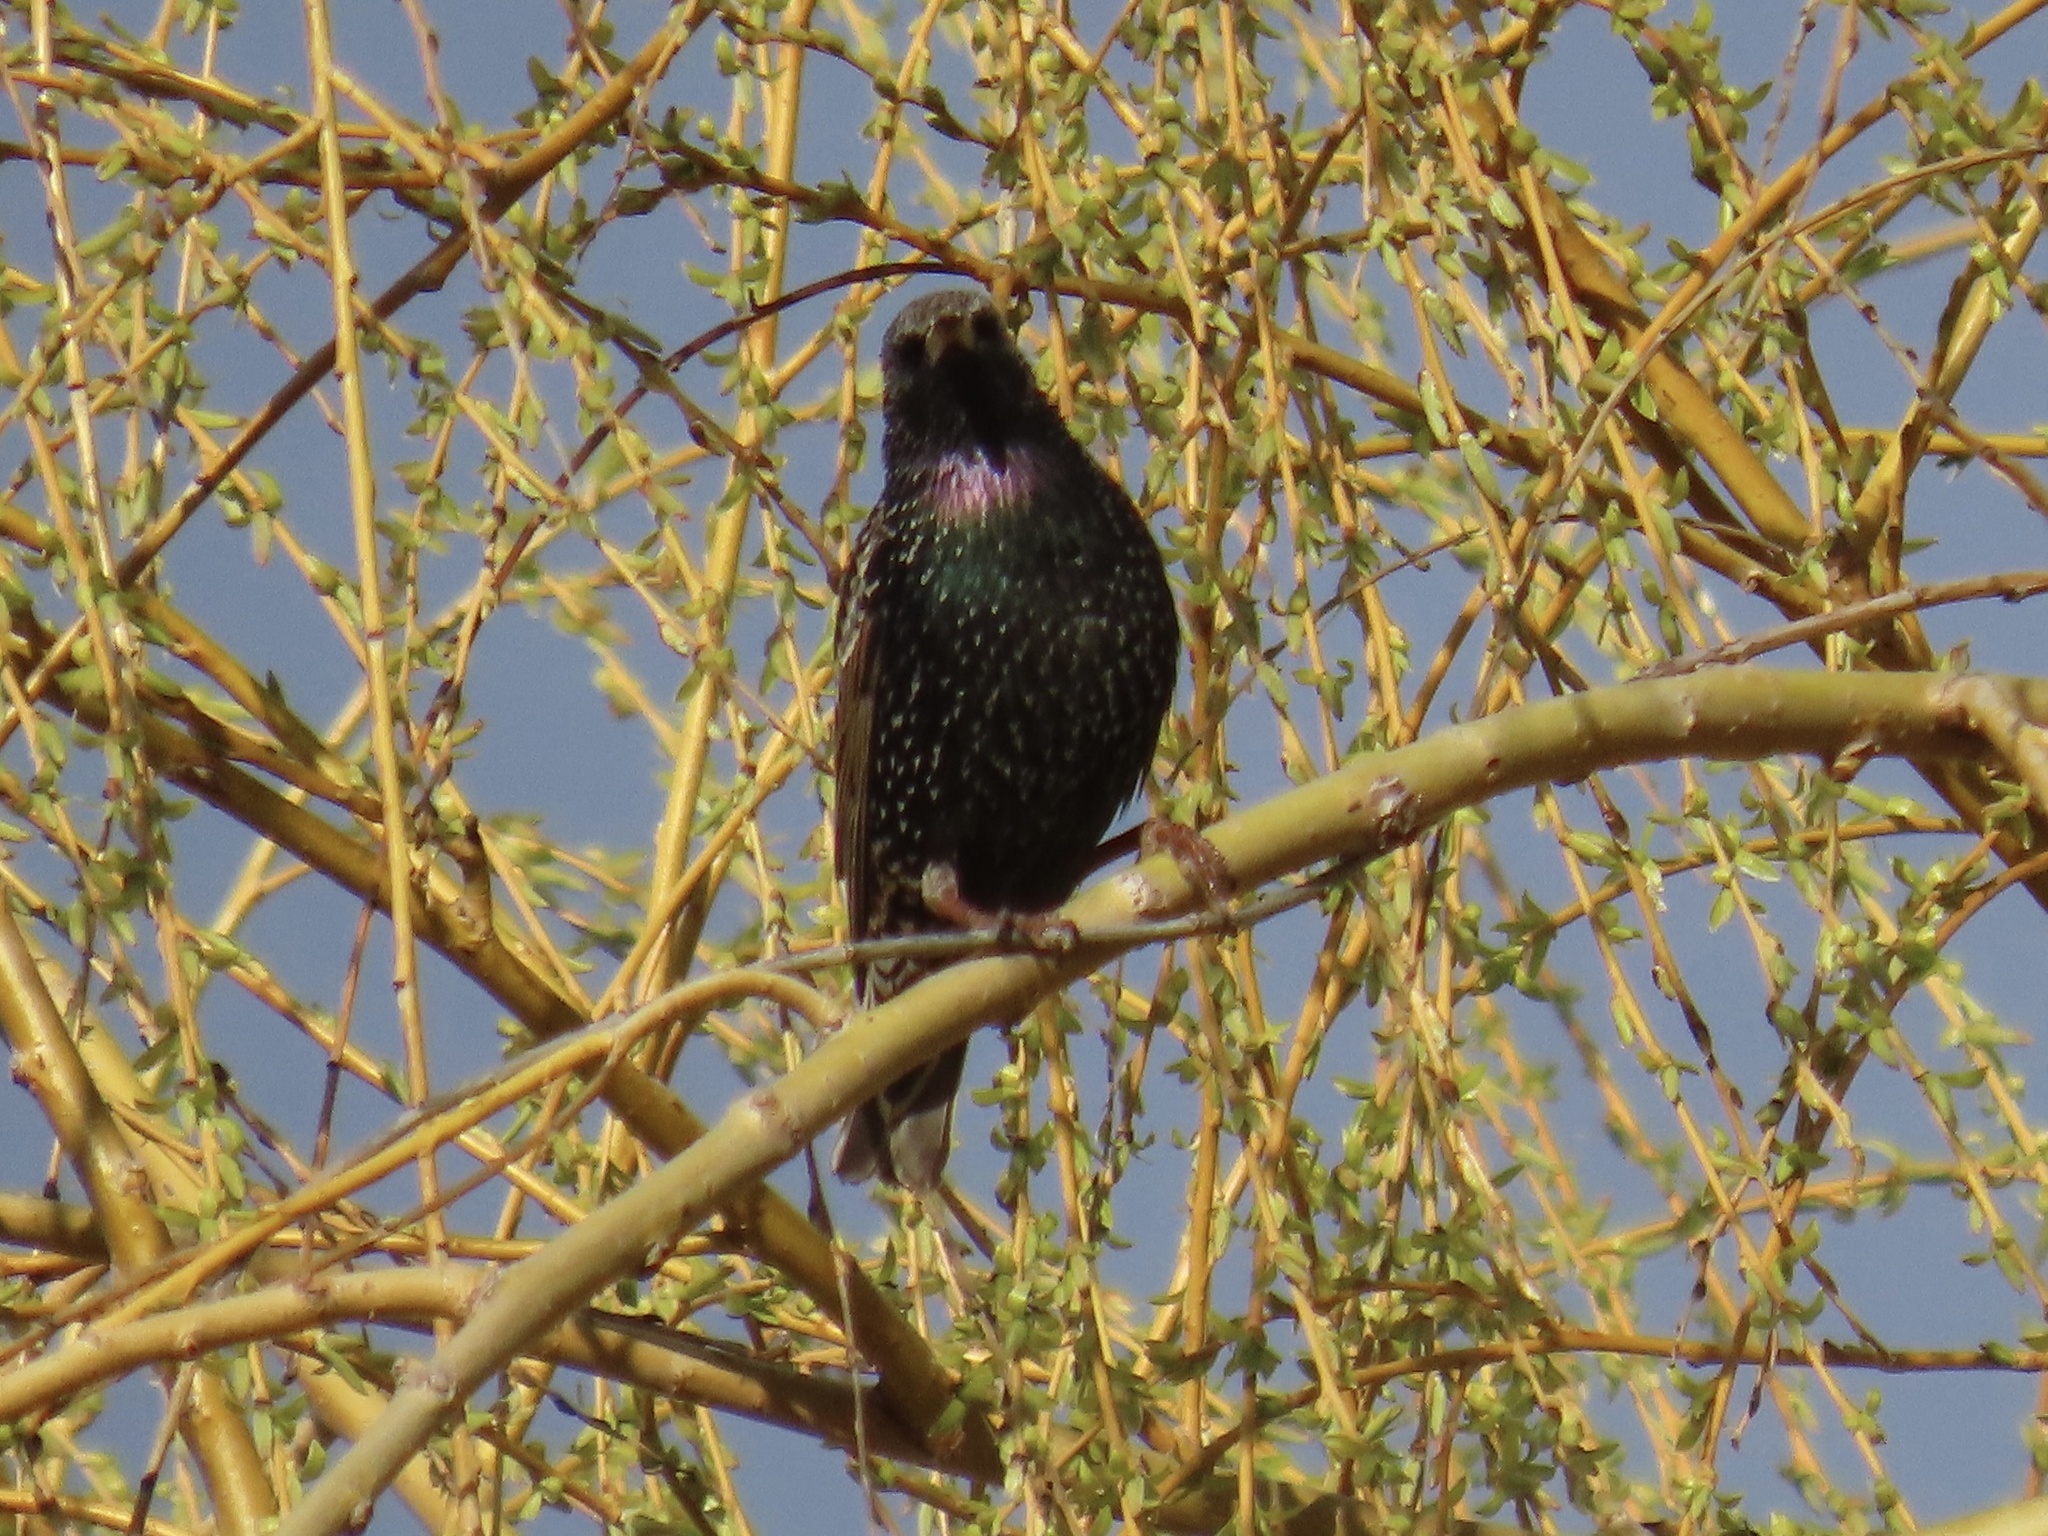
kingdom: Animalia
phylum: Chordata
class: Aves
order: Passeriformes
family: Sturnidae
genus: Sturnus
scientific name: Sturnus vulgaris
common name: Common starling
